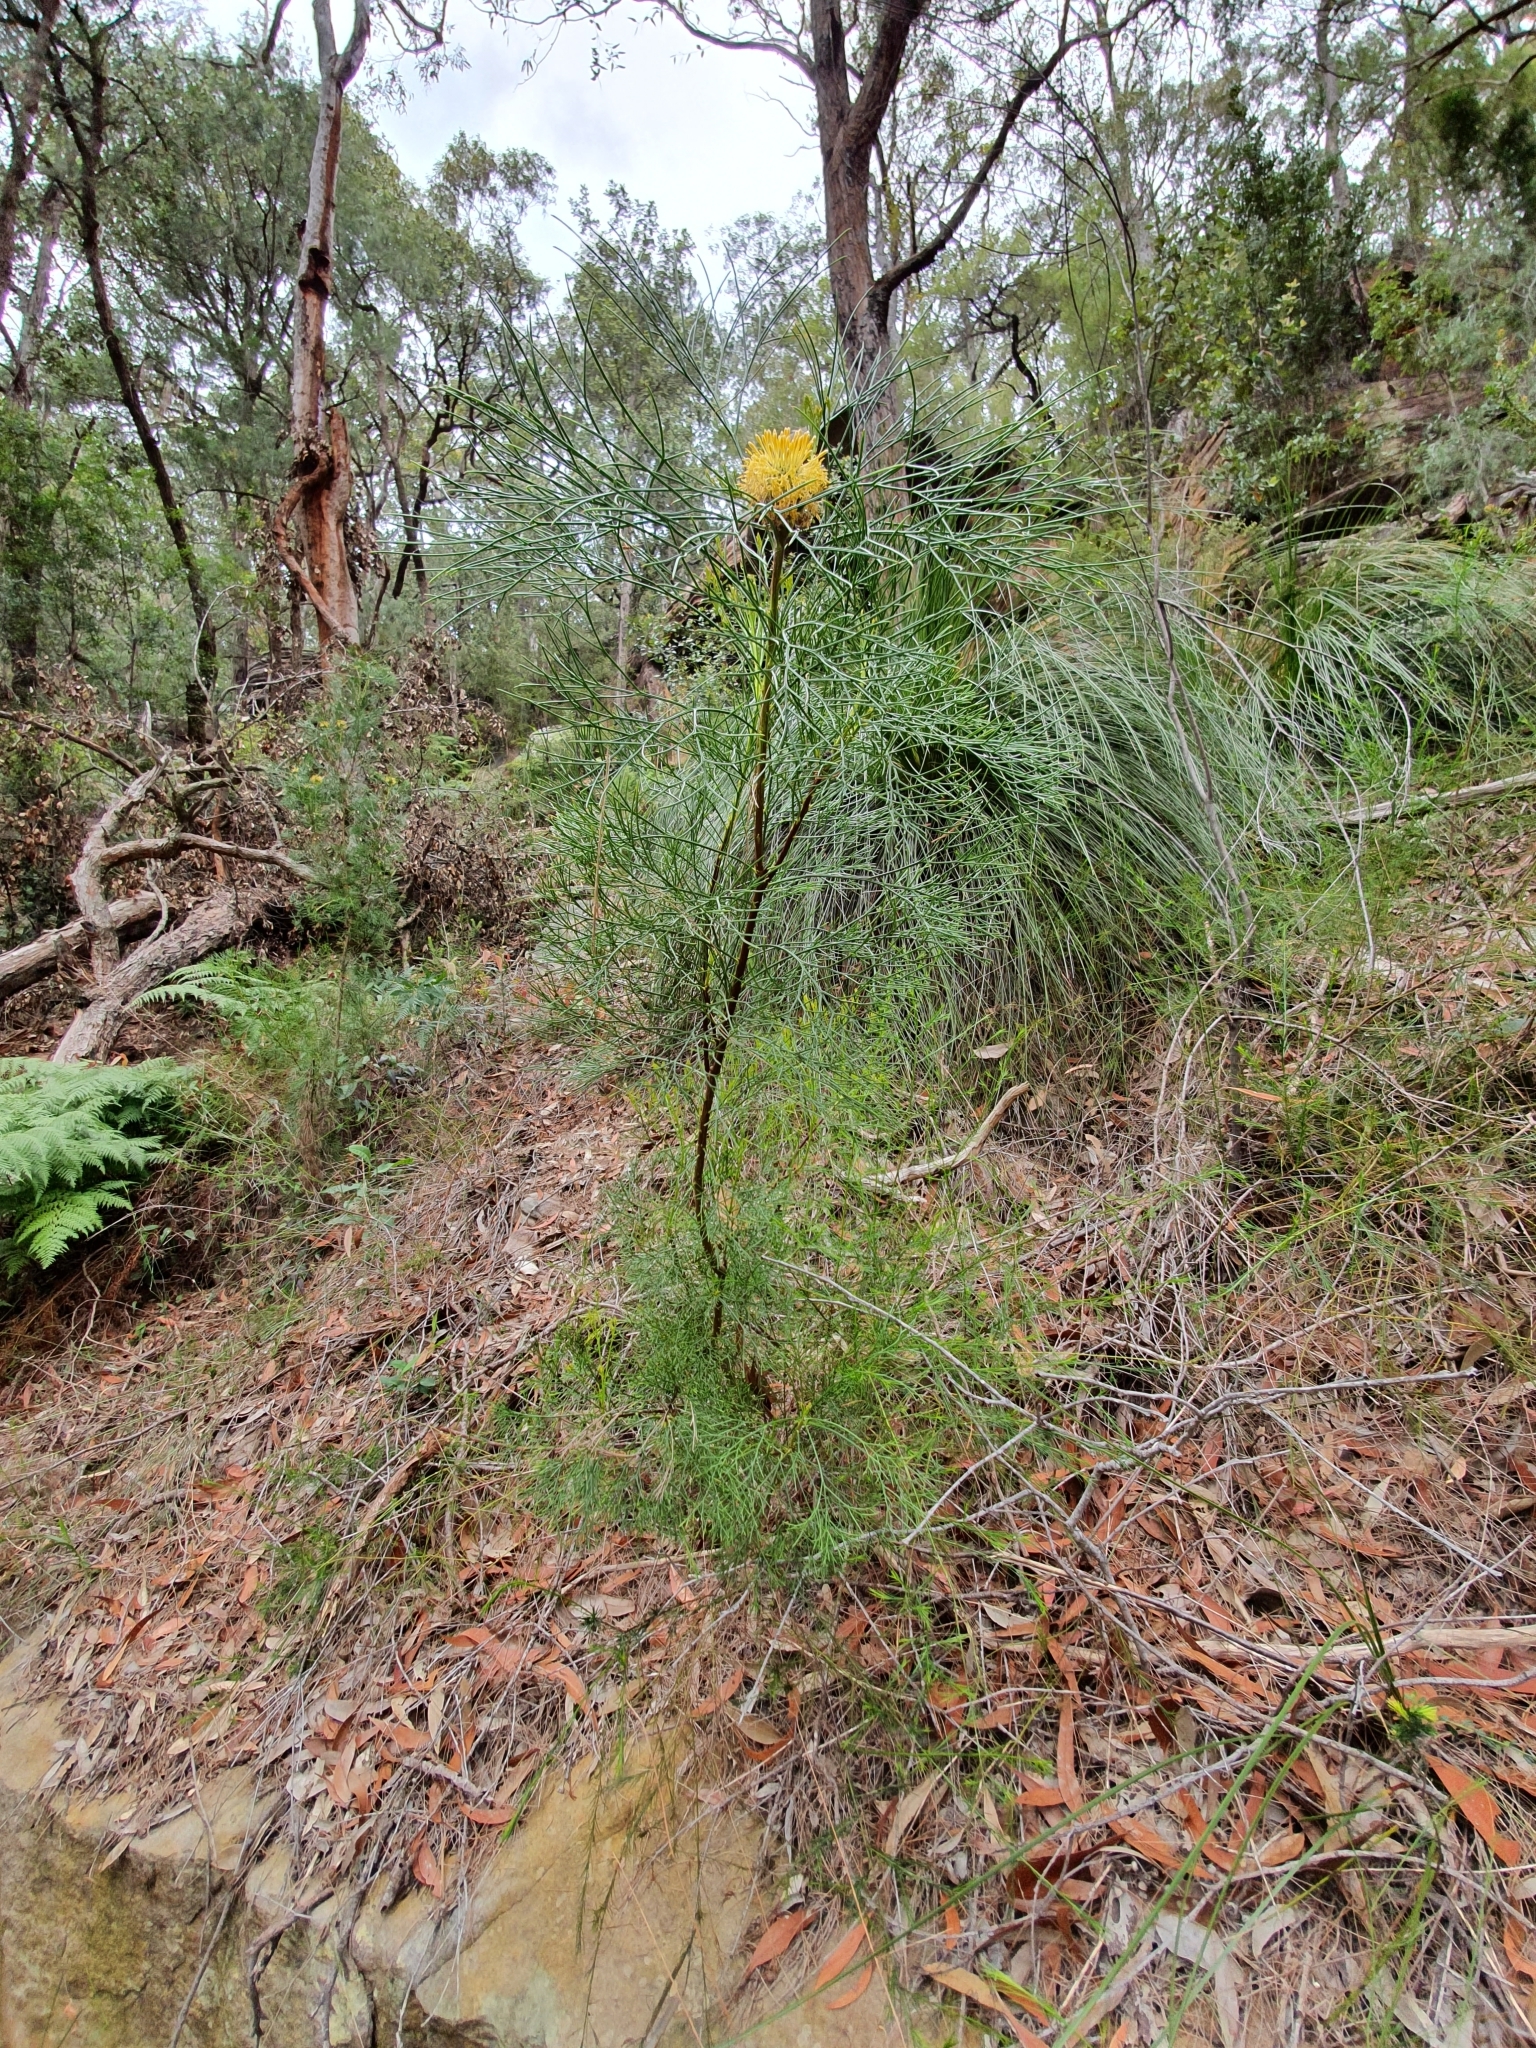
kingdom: Plantae
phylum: Tracheophyta
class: Magnoliopsida
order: Proteales
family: Proteaceae
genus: Isopogon
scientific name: Isopogon anethifolius
